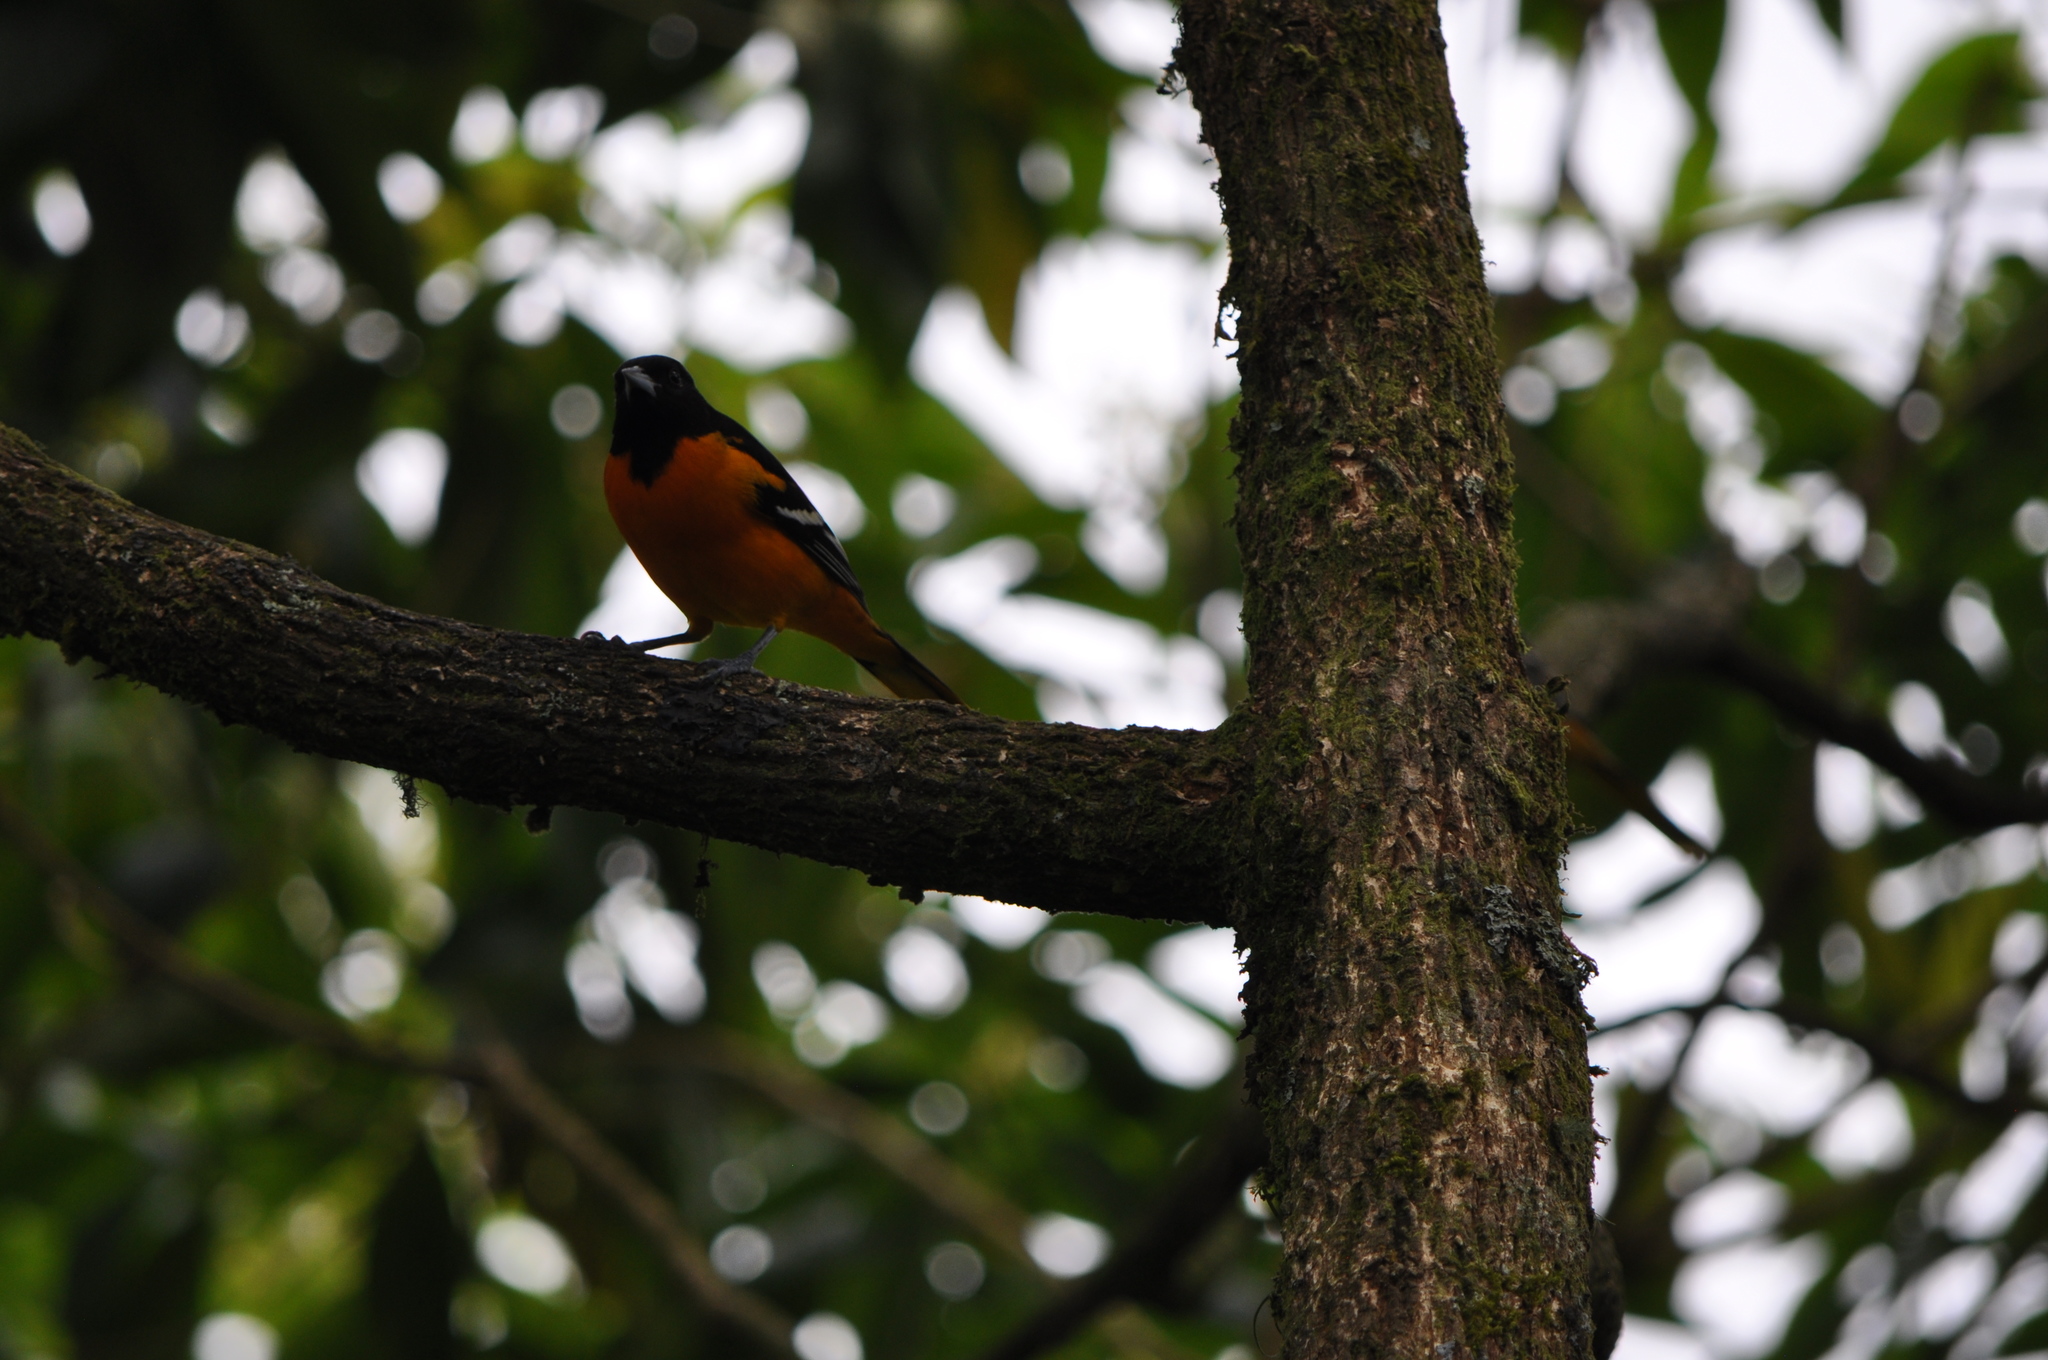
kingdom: Animalia
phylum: Chordata
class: Aves
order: Passeriformes
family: Icteridae
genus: Icterus
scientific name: Icterus galbula
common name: Baltimore oriole
